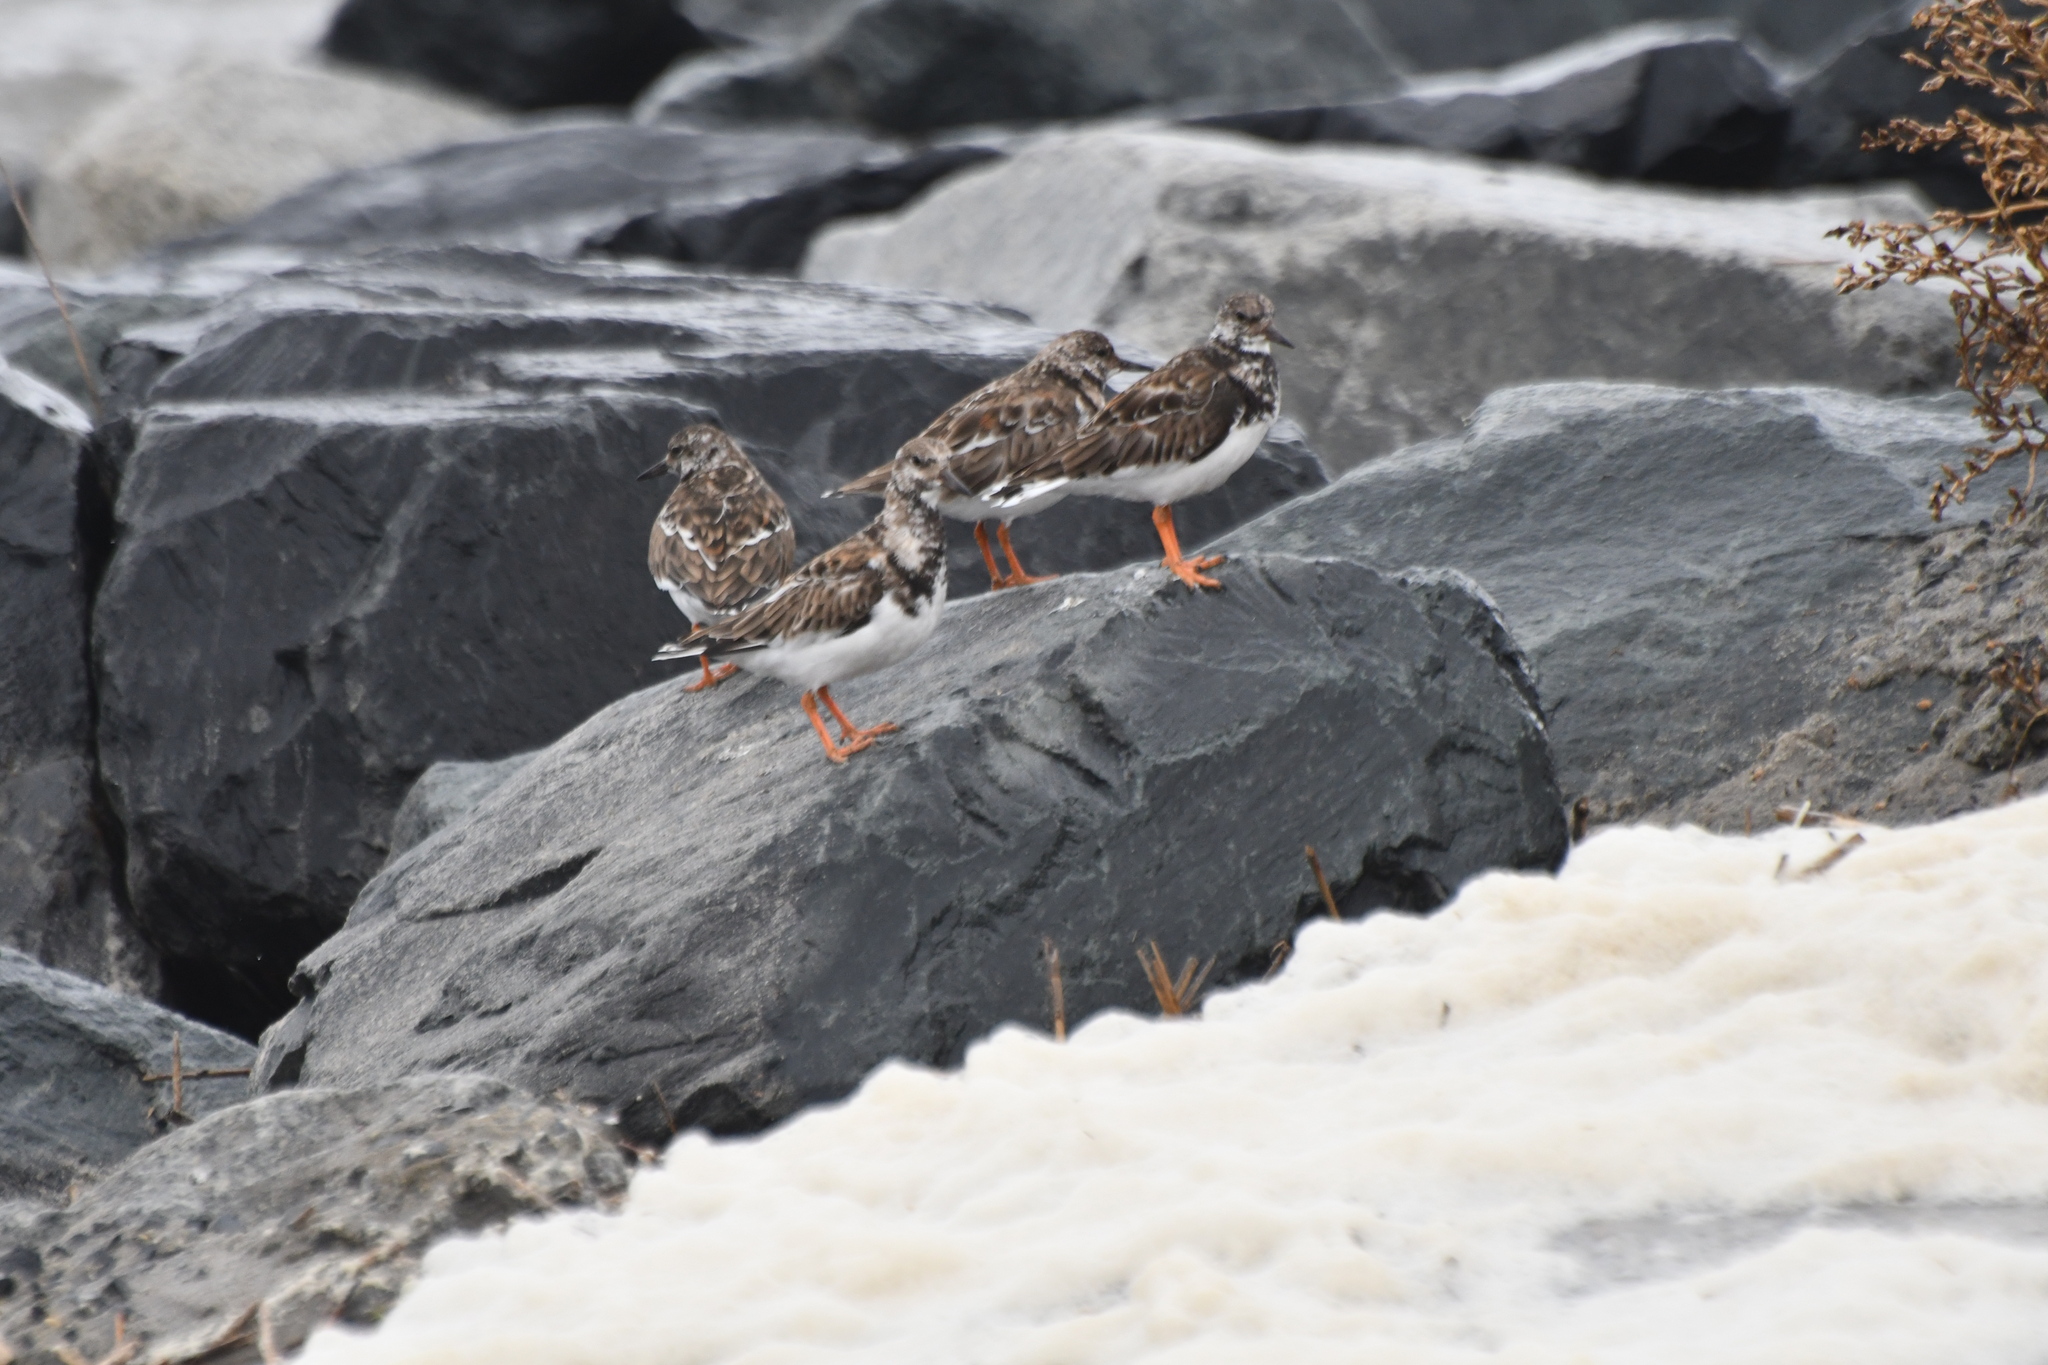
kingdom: Animalia
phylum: Chordata
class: Aves
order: Charadriiformes
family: Scolopacidae
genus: Arenaria
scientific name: Arenaria interpres
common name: Ruddy turnstone
